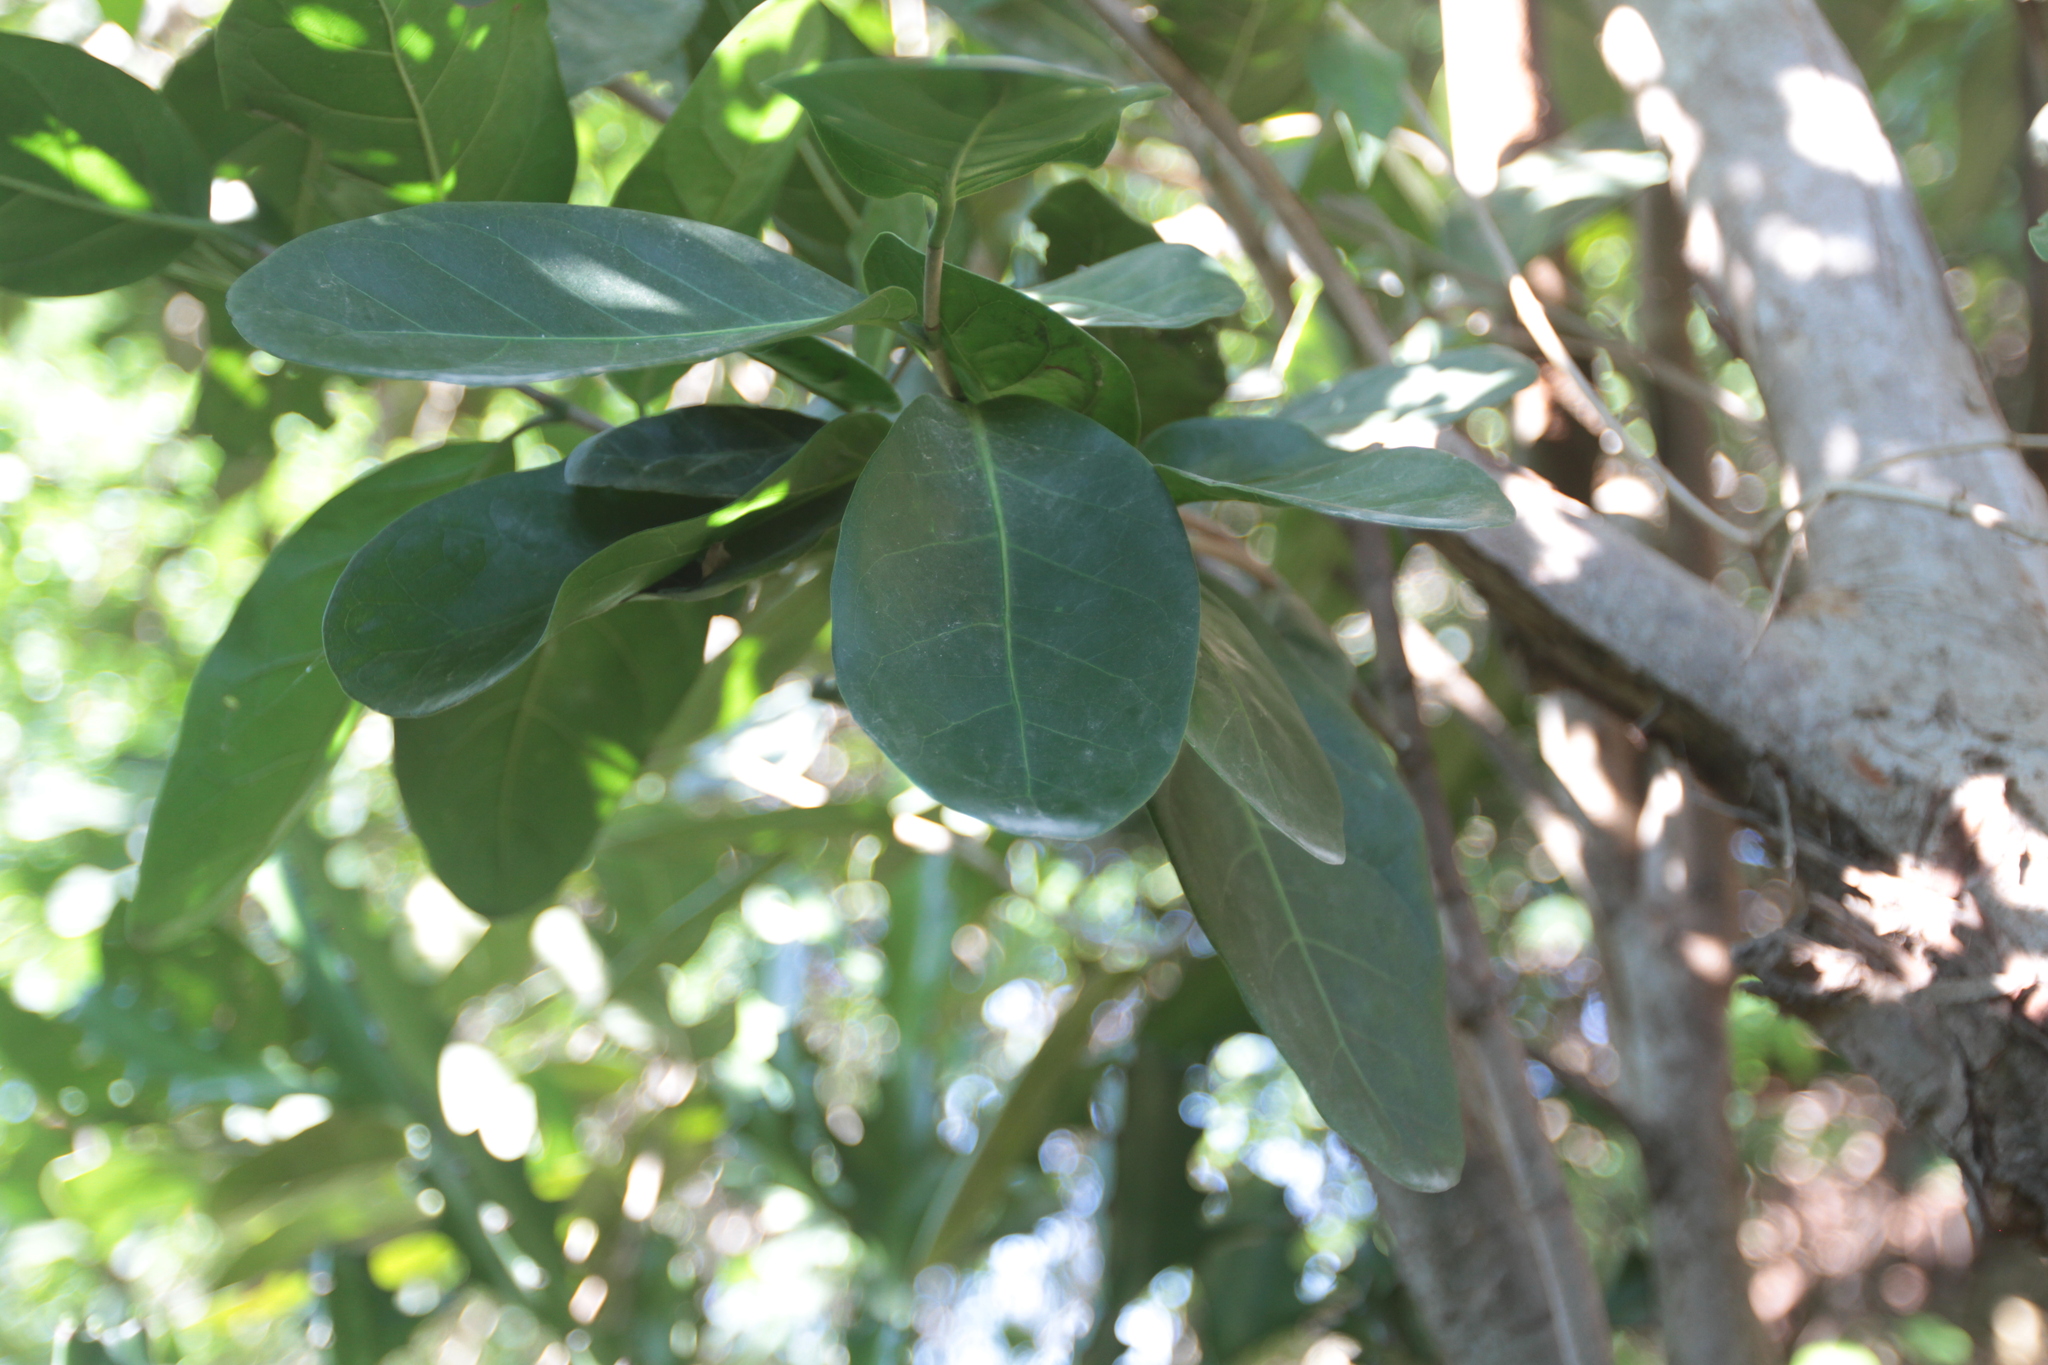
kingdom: Plantae
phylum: Tracheophyta
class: Magnoliopsida
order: Caryophyllales
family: Polygonaceae
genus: Coccoloba
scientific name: Coccoloba diversifolia
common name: Pigeon-plum
